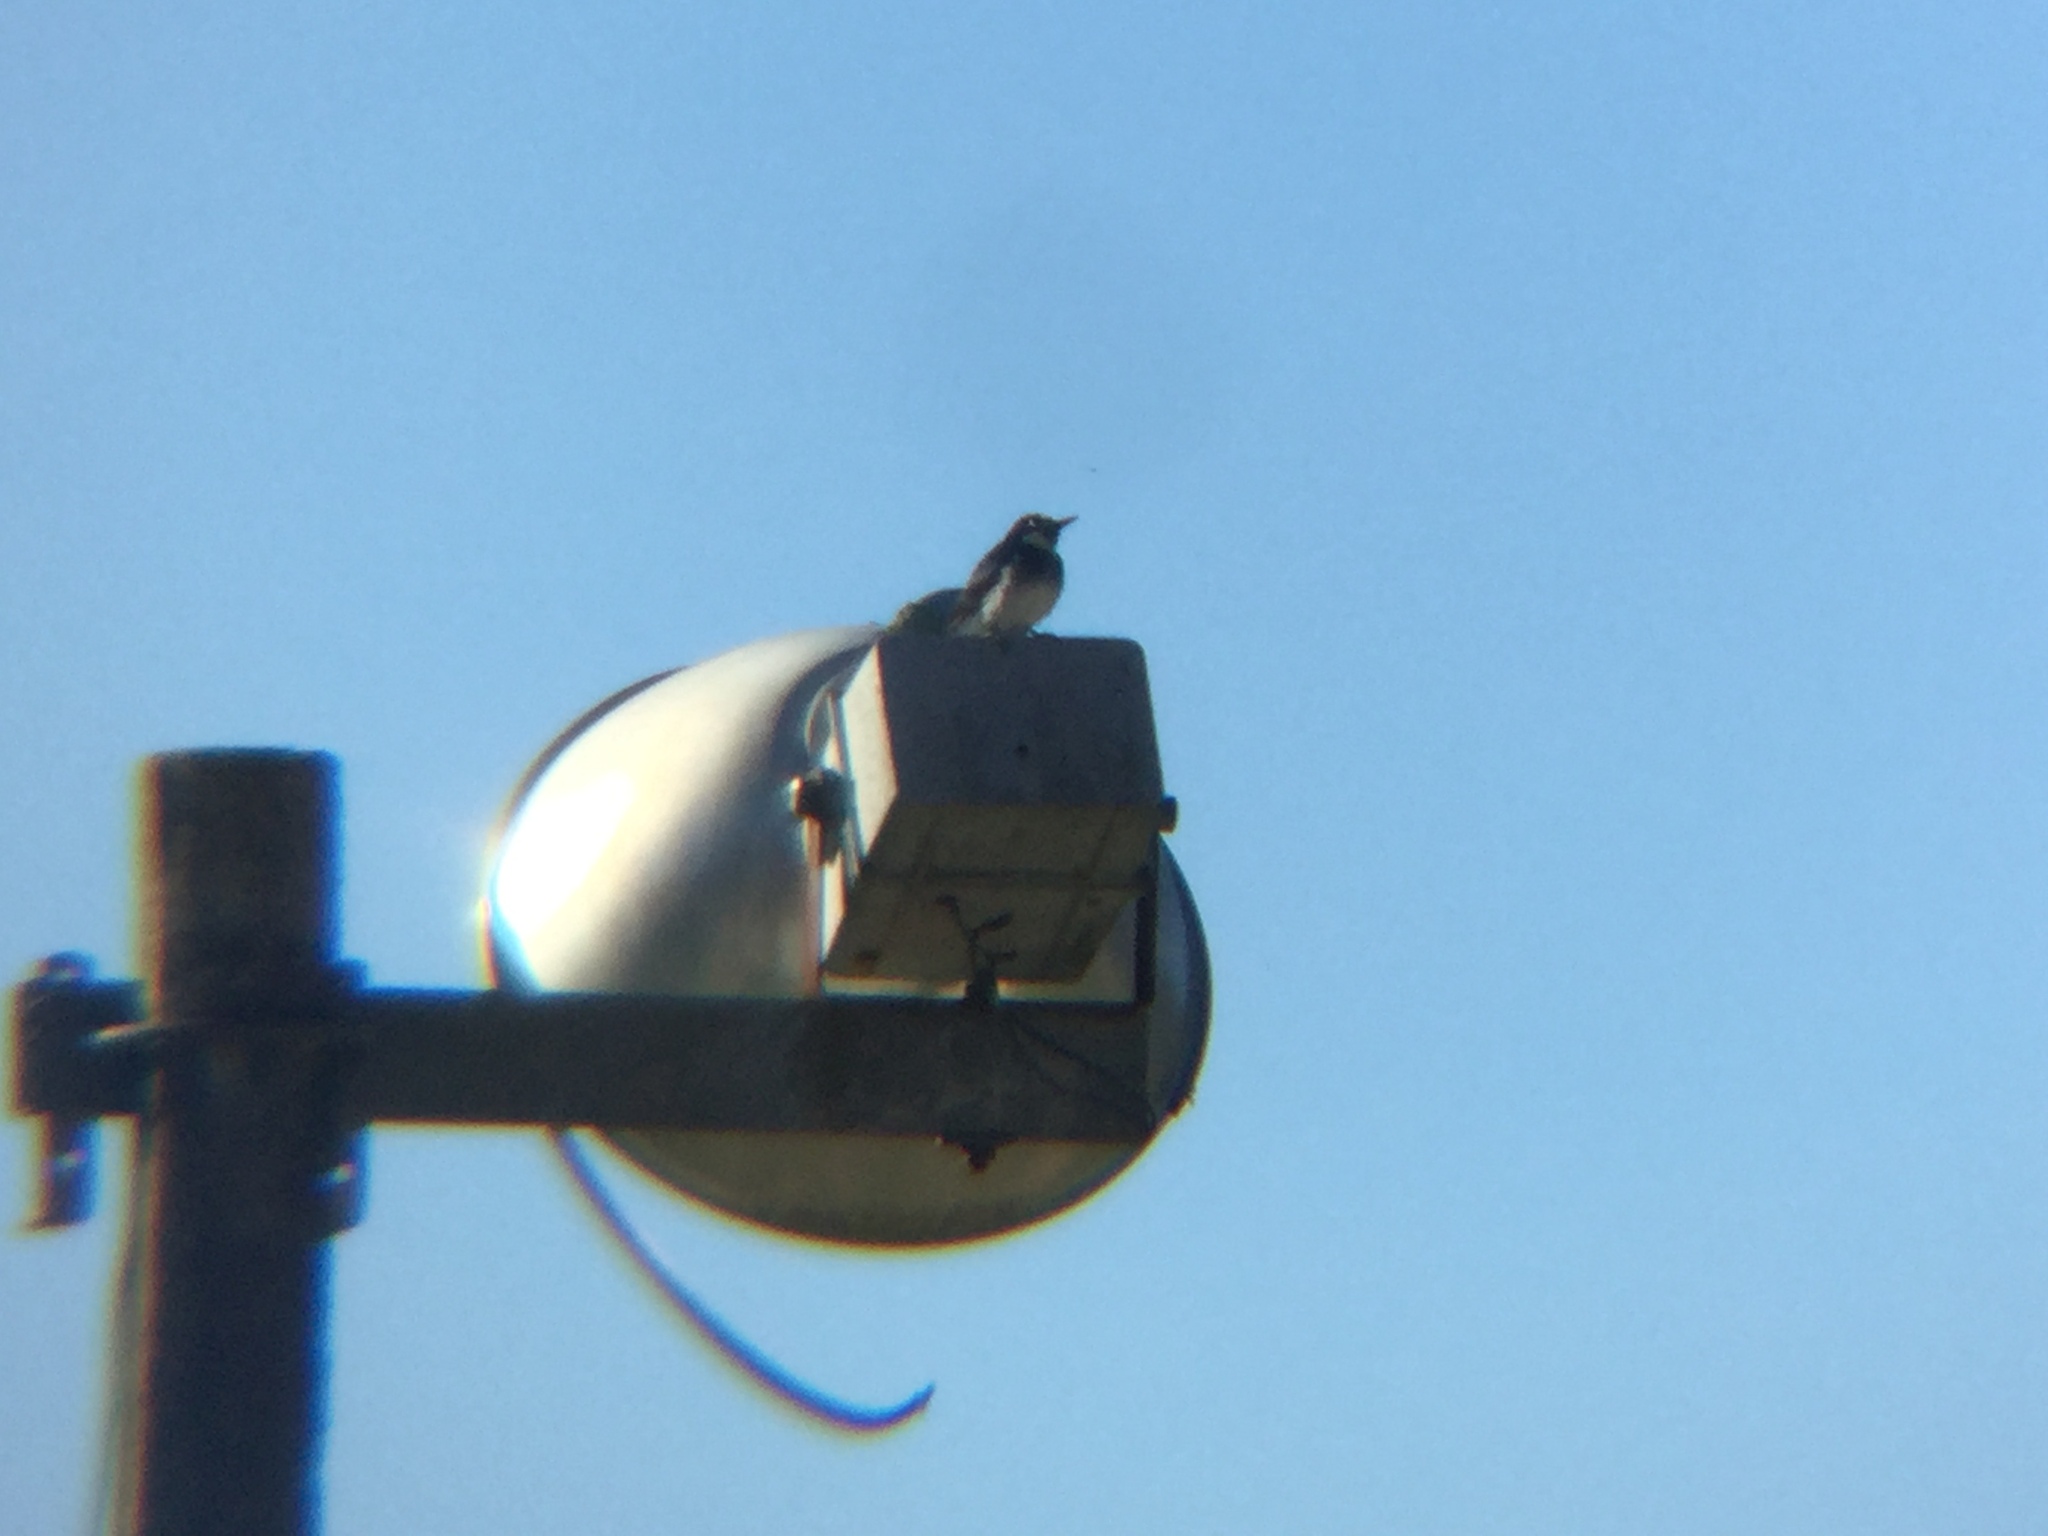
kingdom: Animalia
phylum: Chordata
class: Aves
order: Piciformes
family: Picidae
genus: Melanerpes
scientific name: Melanerpes formicivorus
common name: Acorn woodpecker
